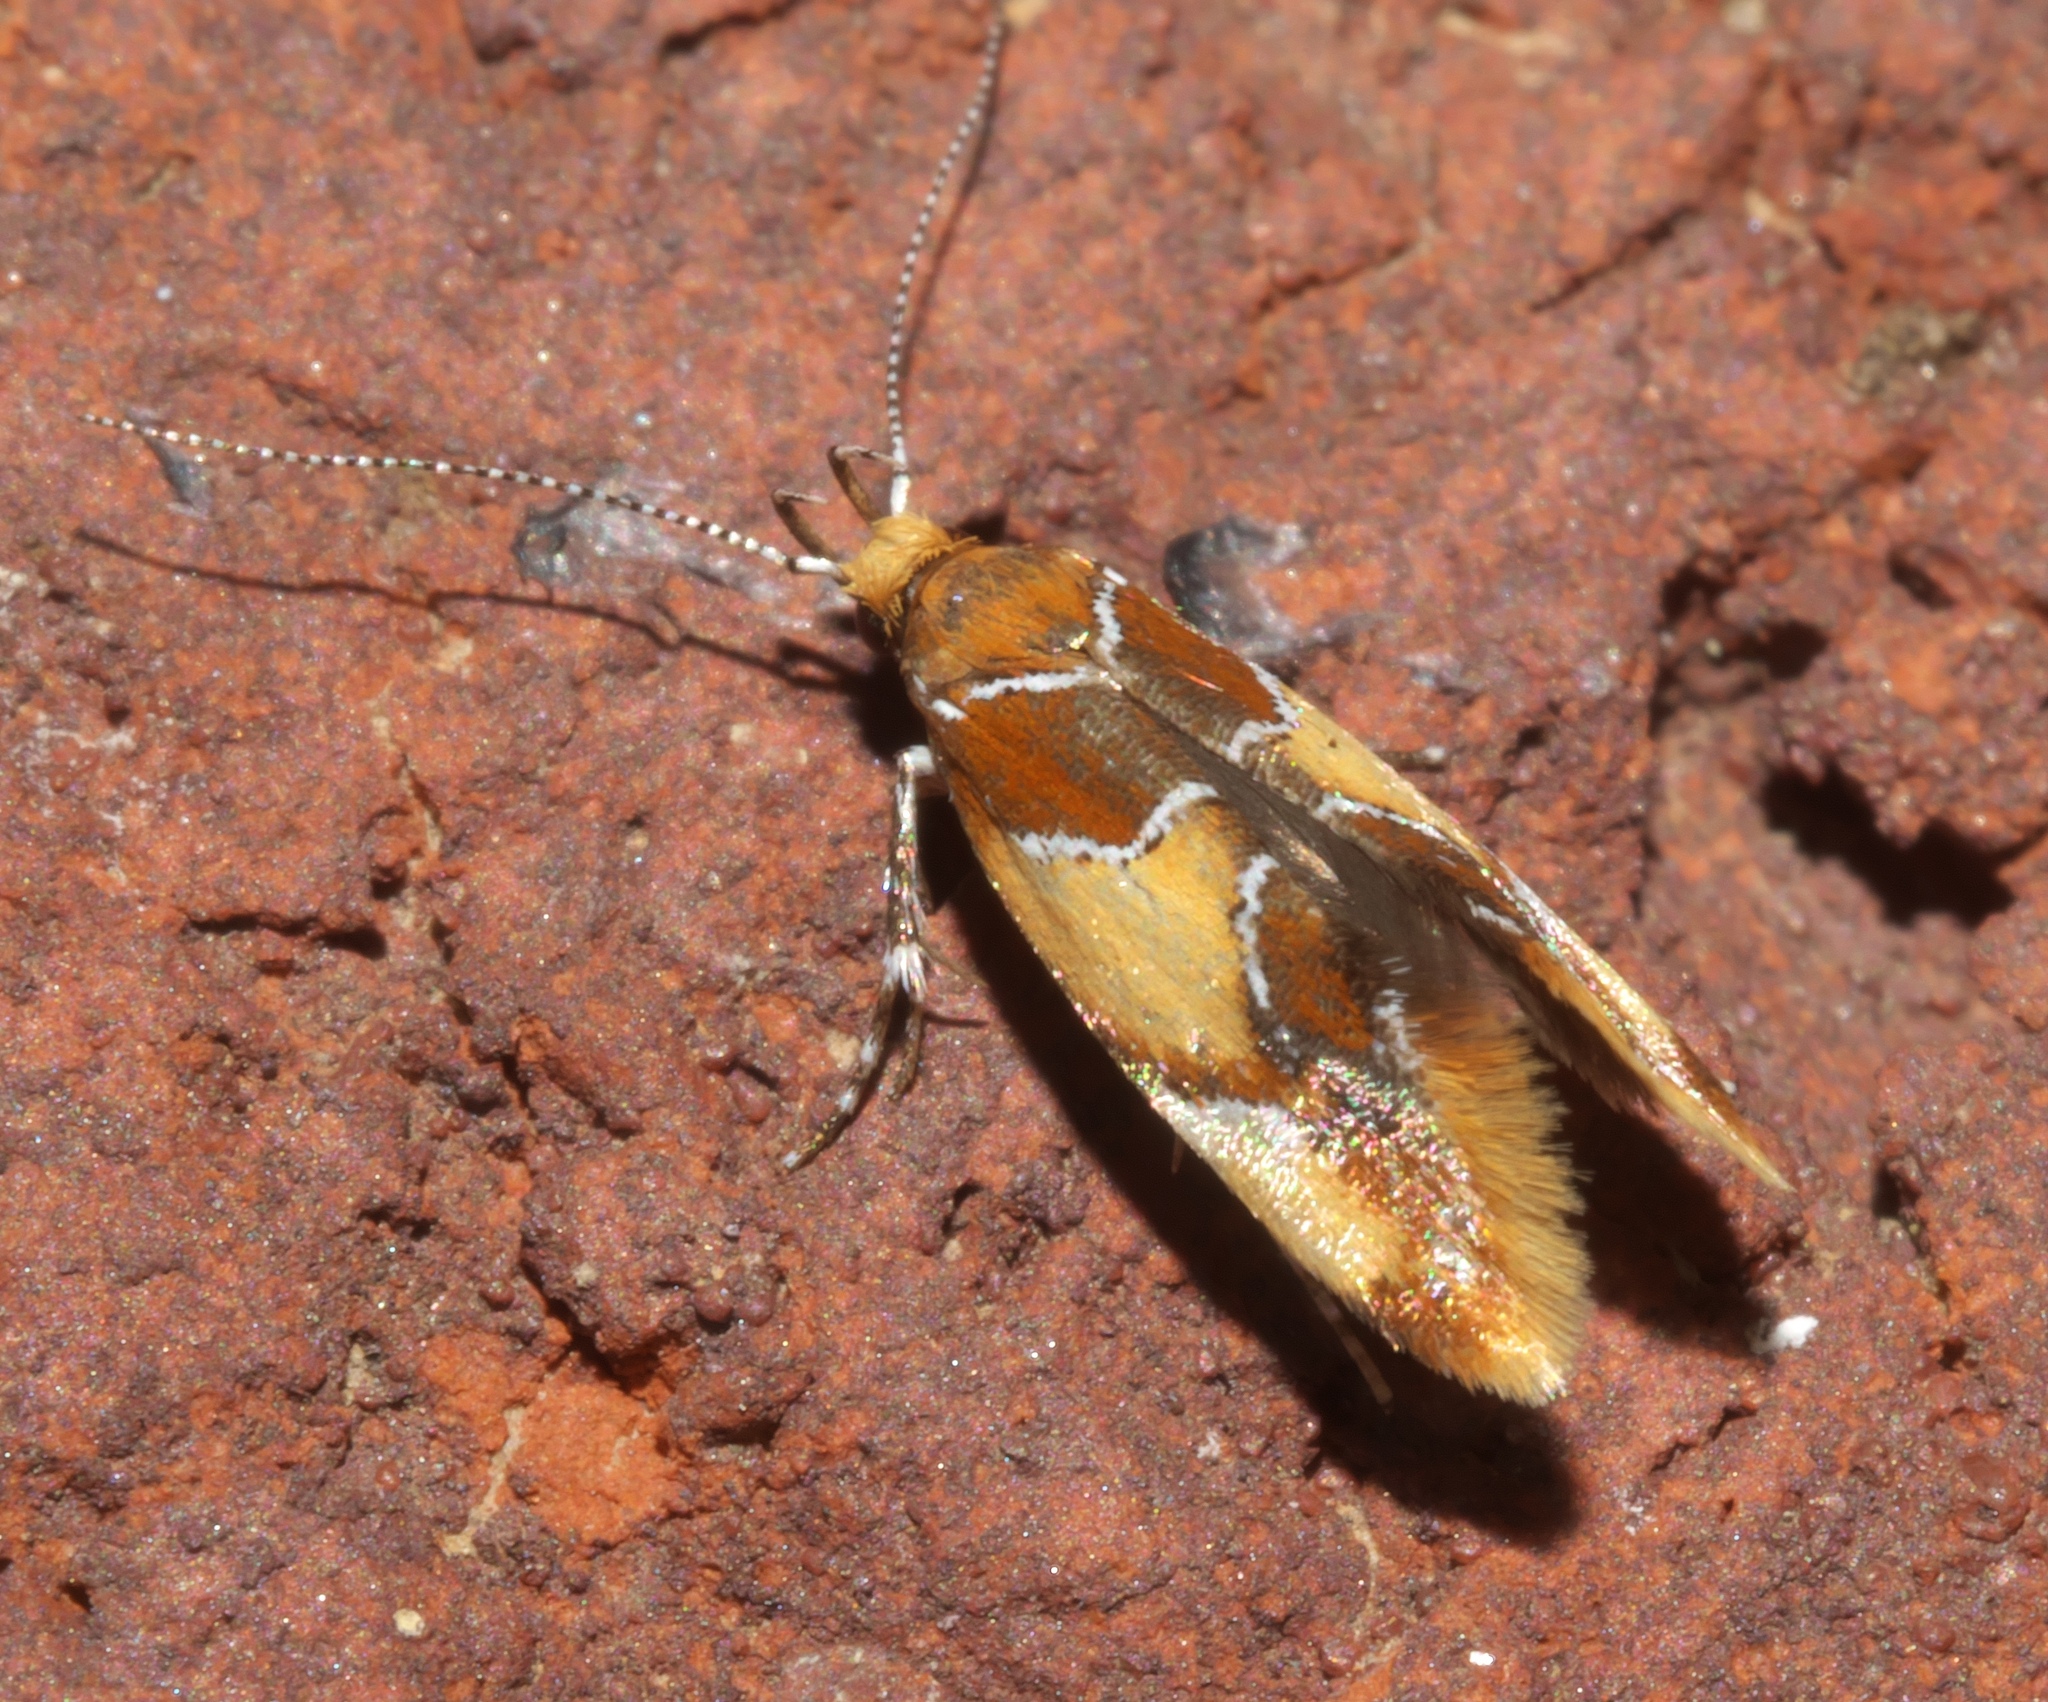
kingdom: Animalia
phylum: Arthropoda
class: Insecta
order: Lepidoptera
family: Oecophoridae
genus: Callima
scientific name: Callima argenticinctella
